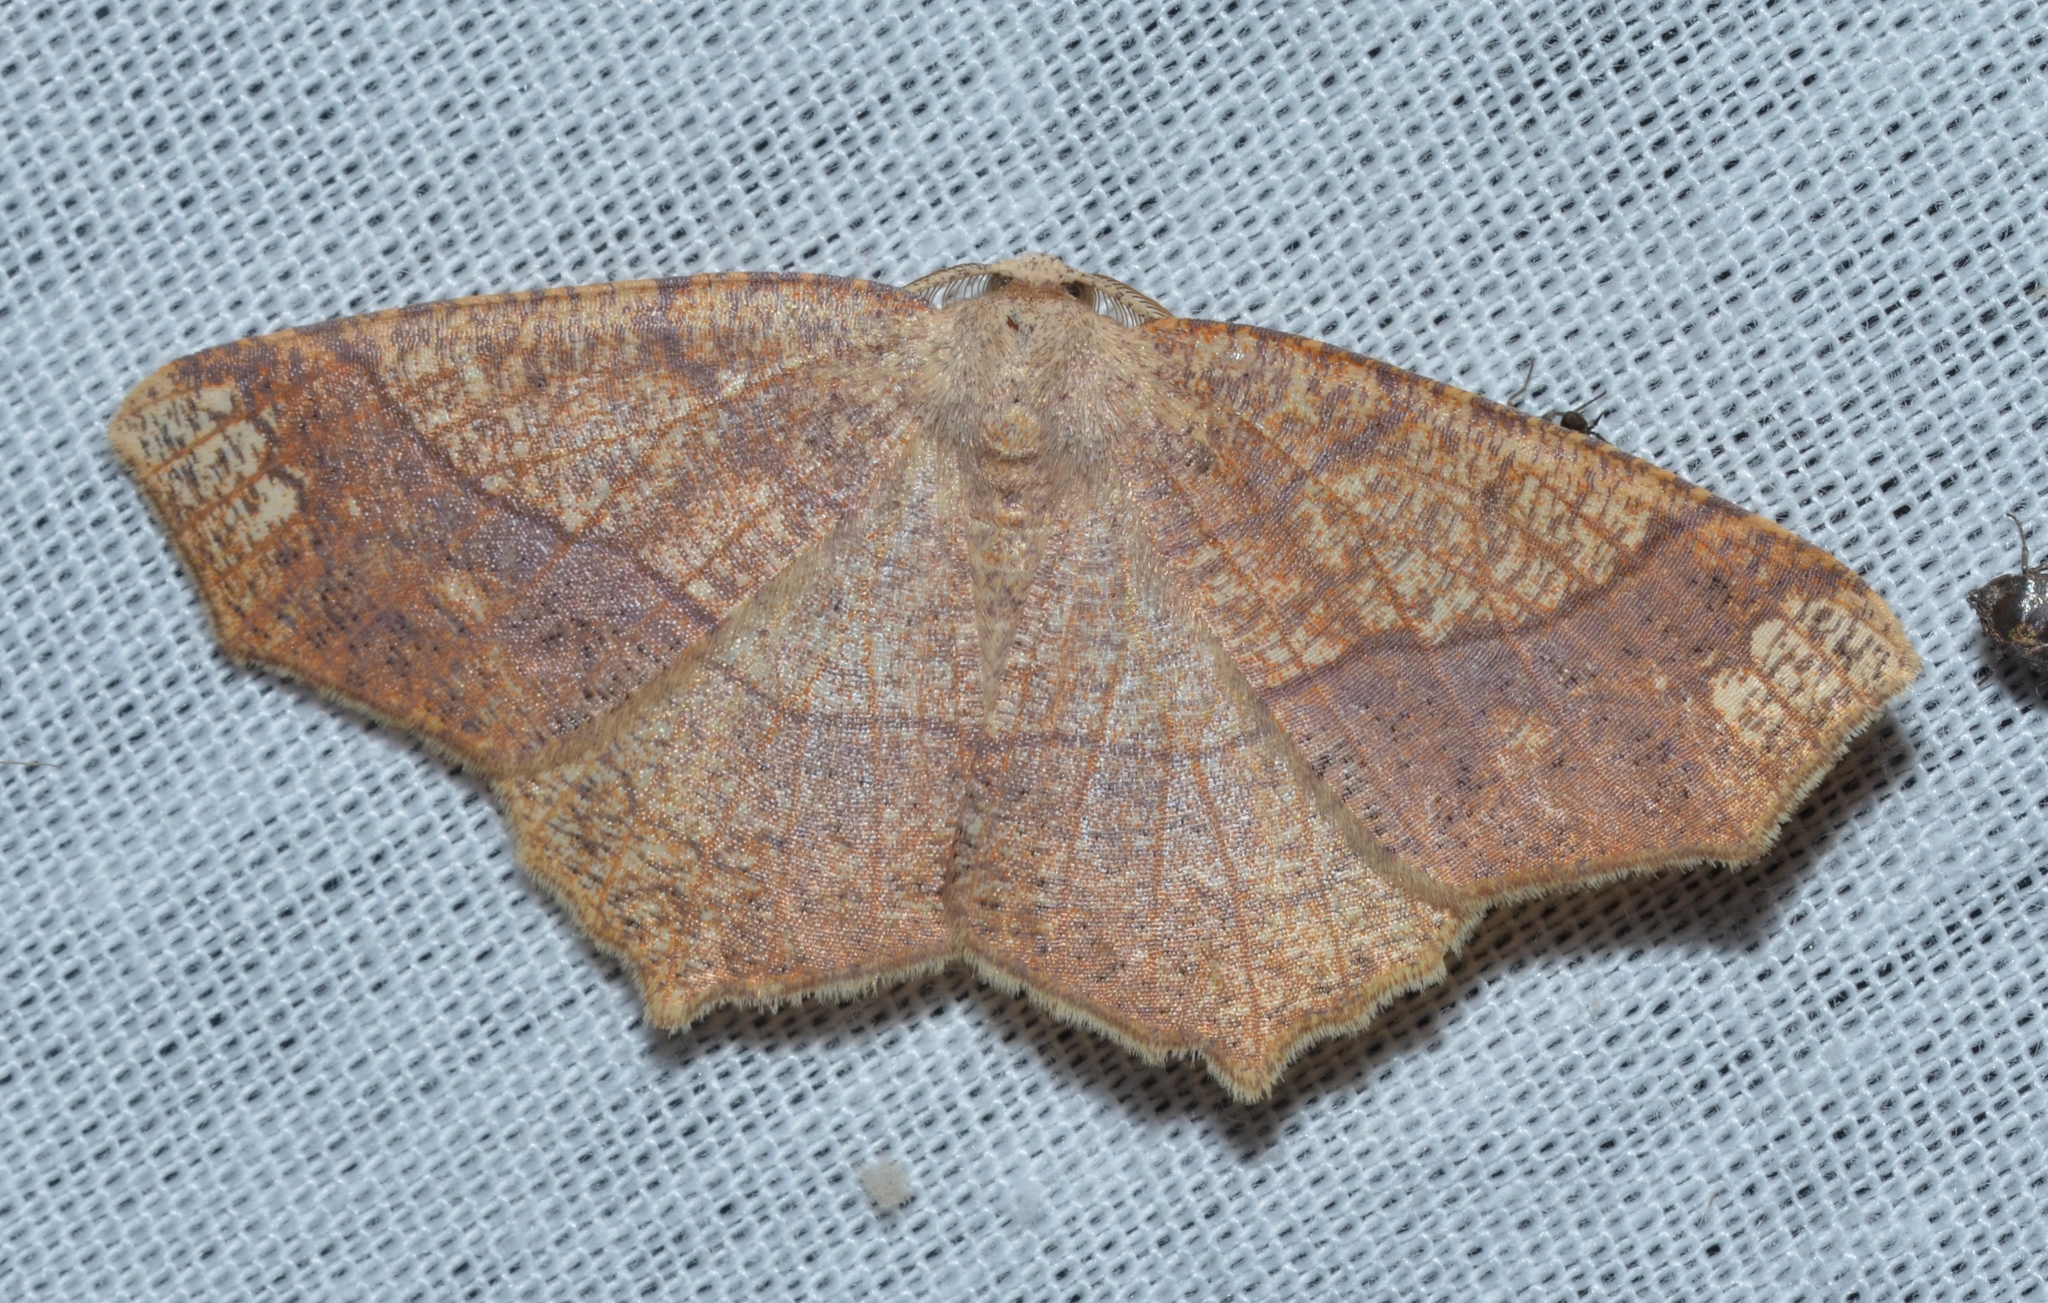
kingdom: Animalia
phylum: Arthropoda
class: Insecta
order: Lepidoptera
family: Geometridae
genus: Besma
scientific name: Besma quercivoraria
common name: Oak besma
